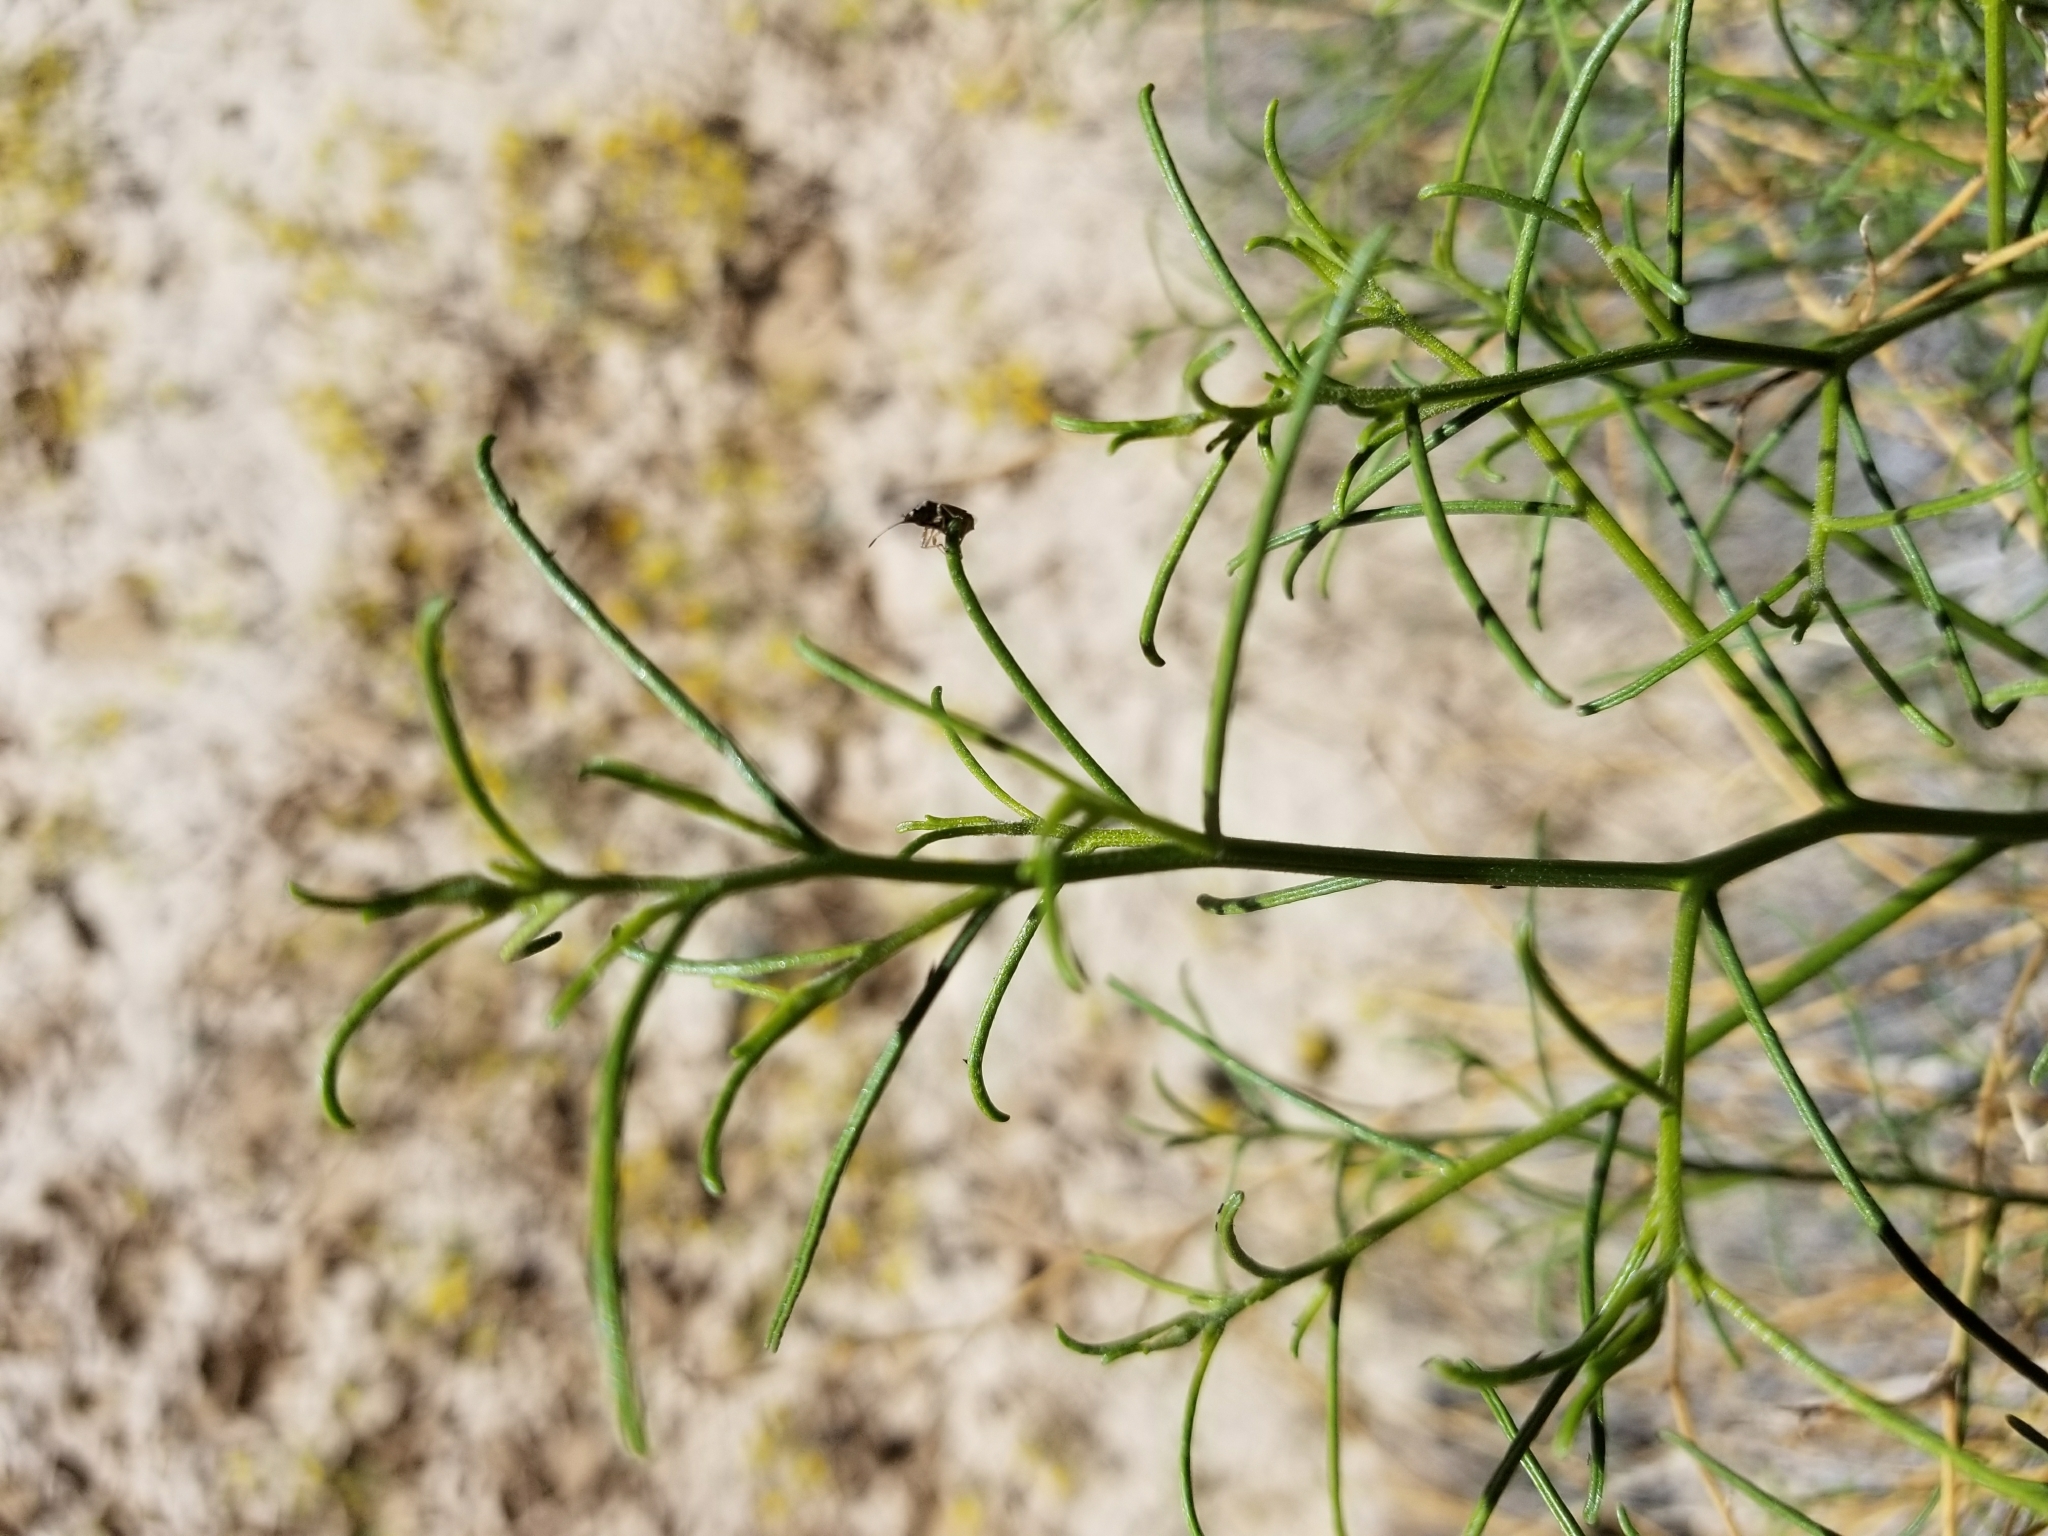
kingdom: Plantae
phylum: Tracheophyta
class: Magnoliopsida
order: Asterales
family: Asteraceae
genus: Ambrosia
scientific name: Ambrosia salsola
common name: Burrobrush
